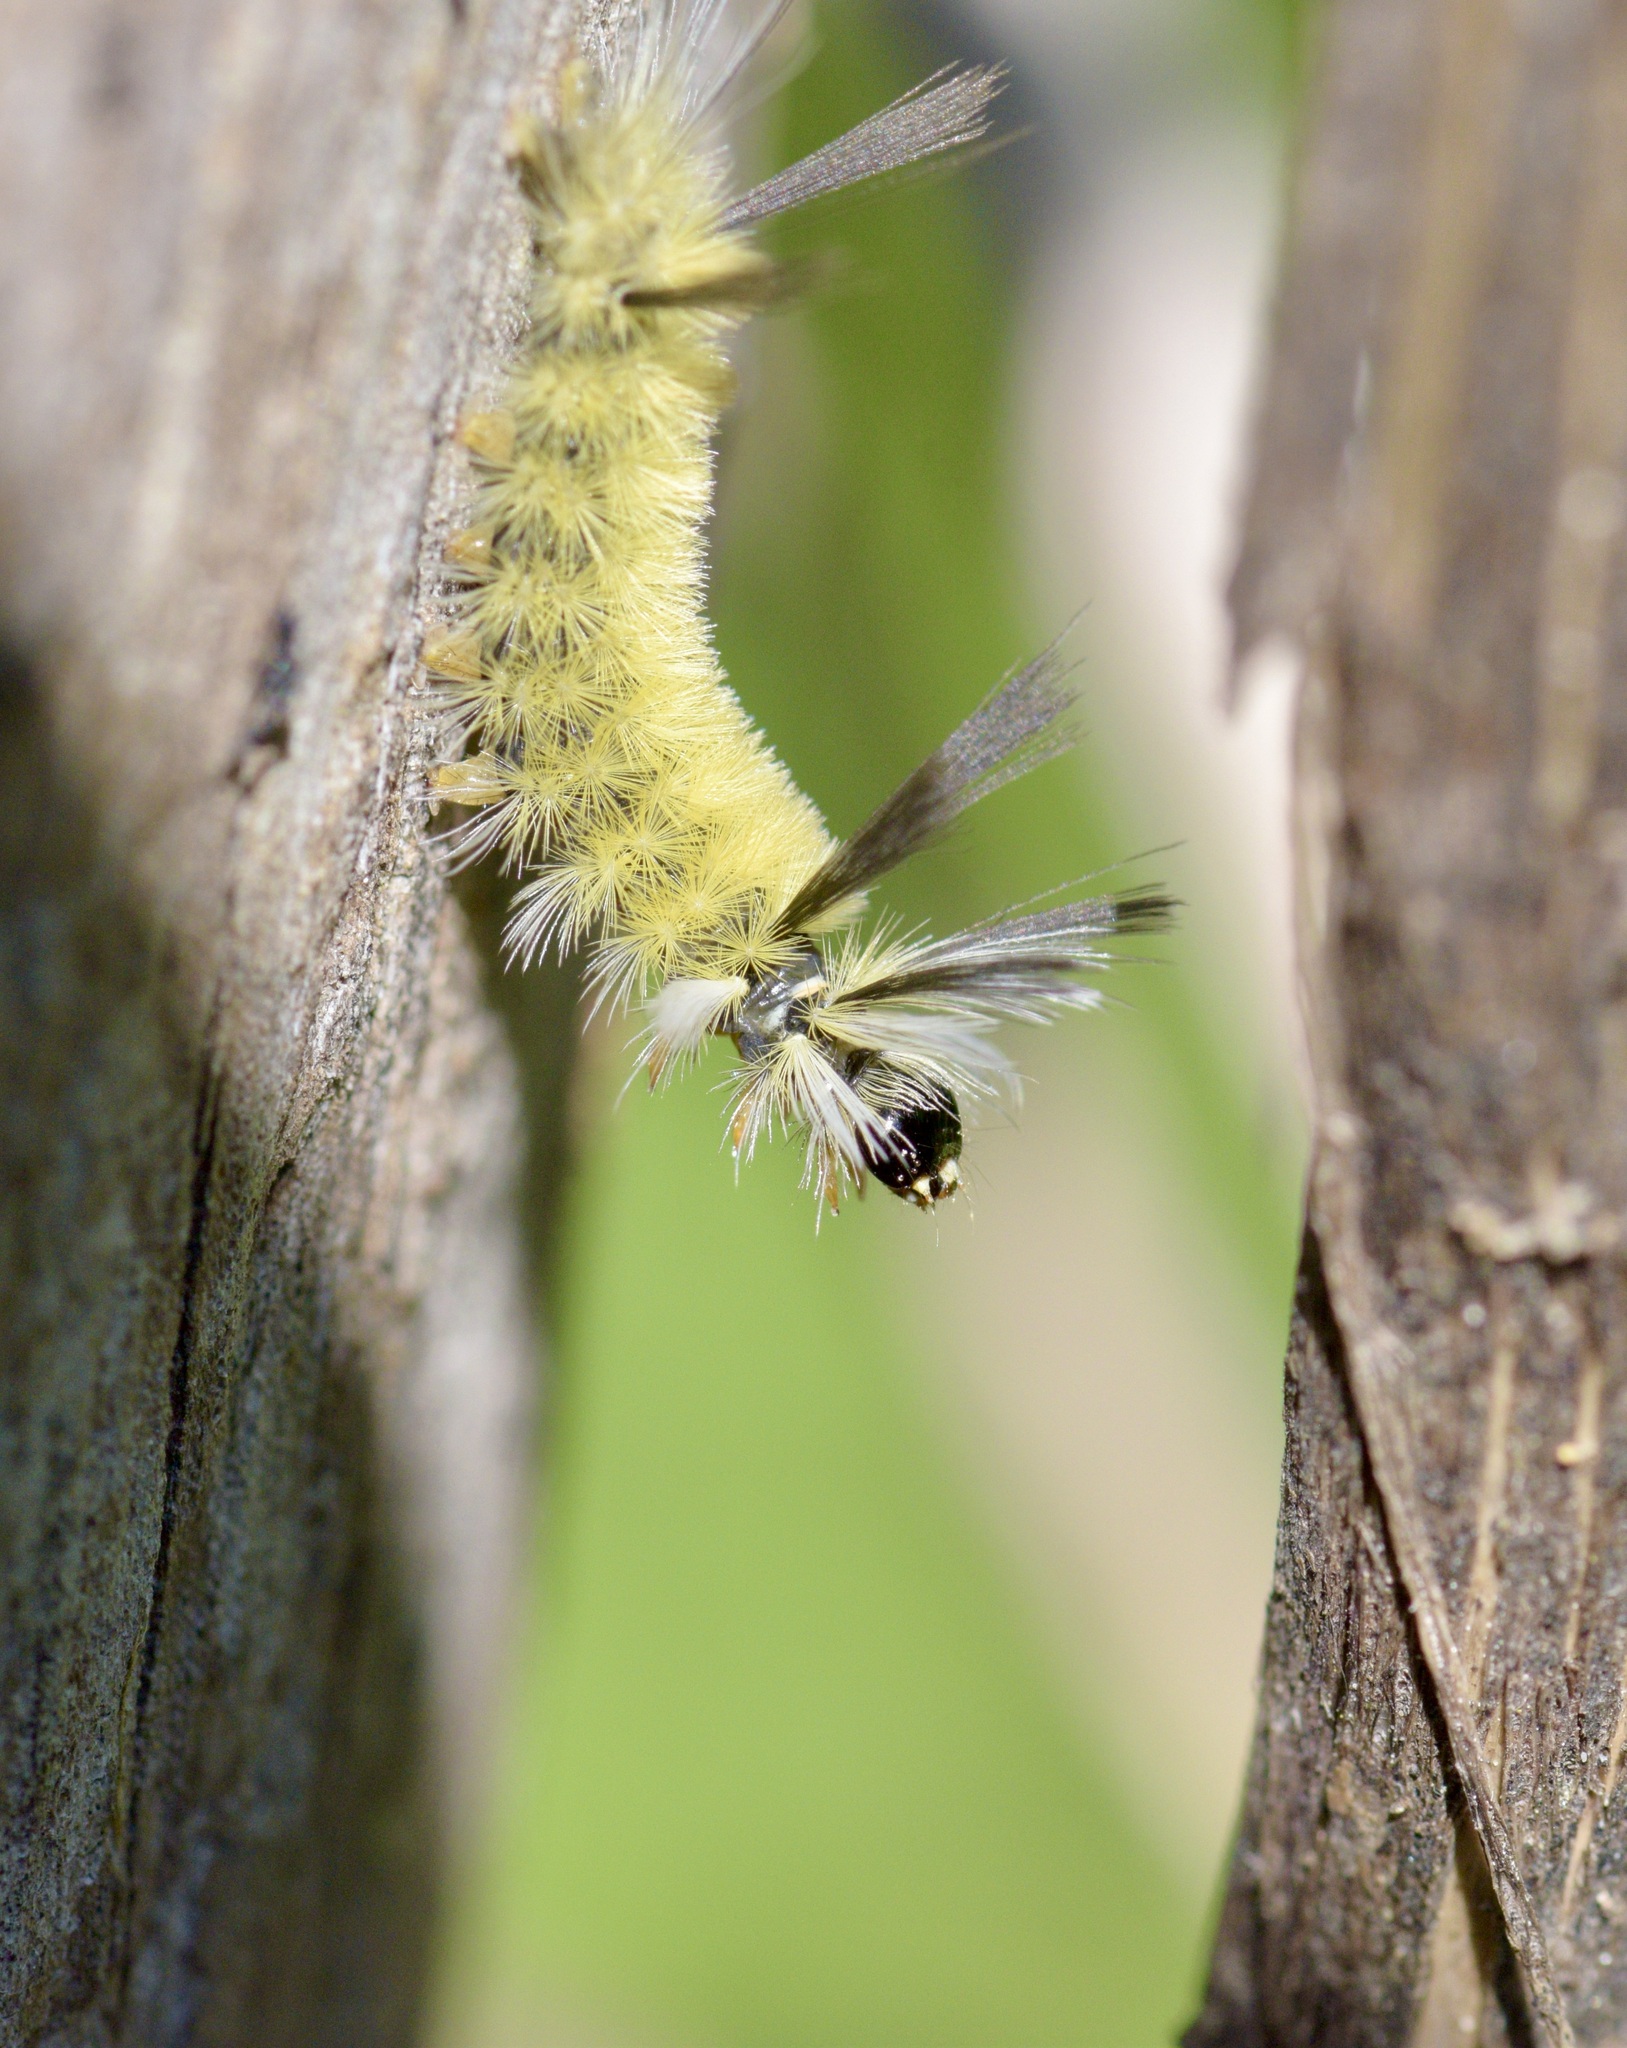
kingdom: Animalia
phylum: Arthropoda
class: Insecta
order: Lepidoptera
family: Erebidae
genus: Halysidota
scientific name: Halysidota tessellaris
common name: Banded tussock moth
